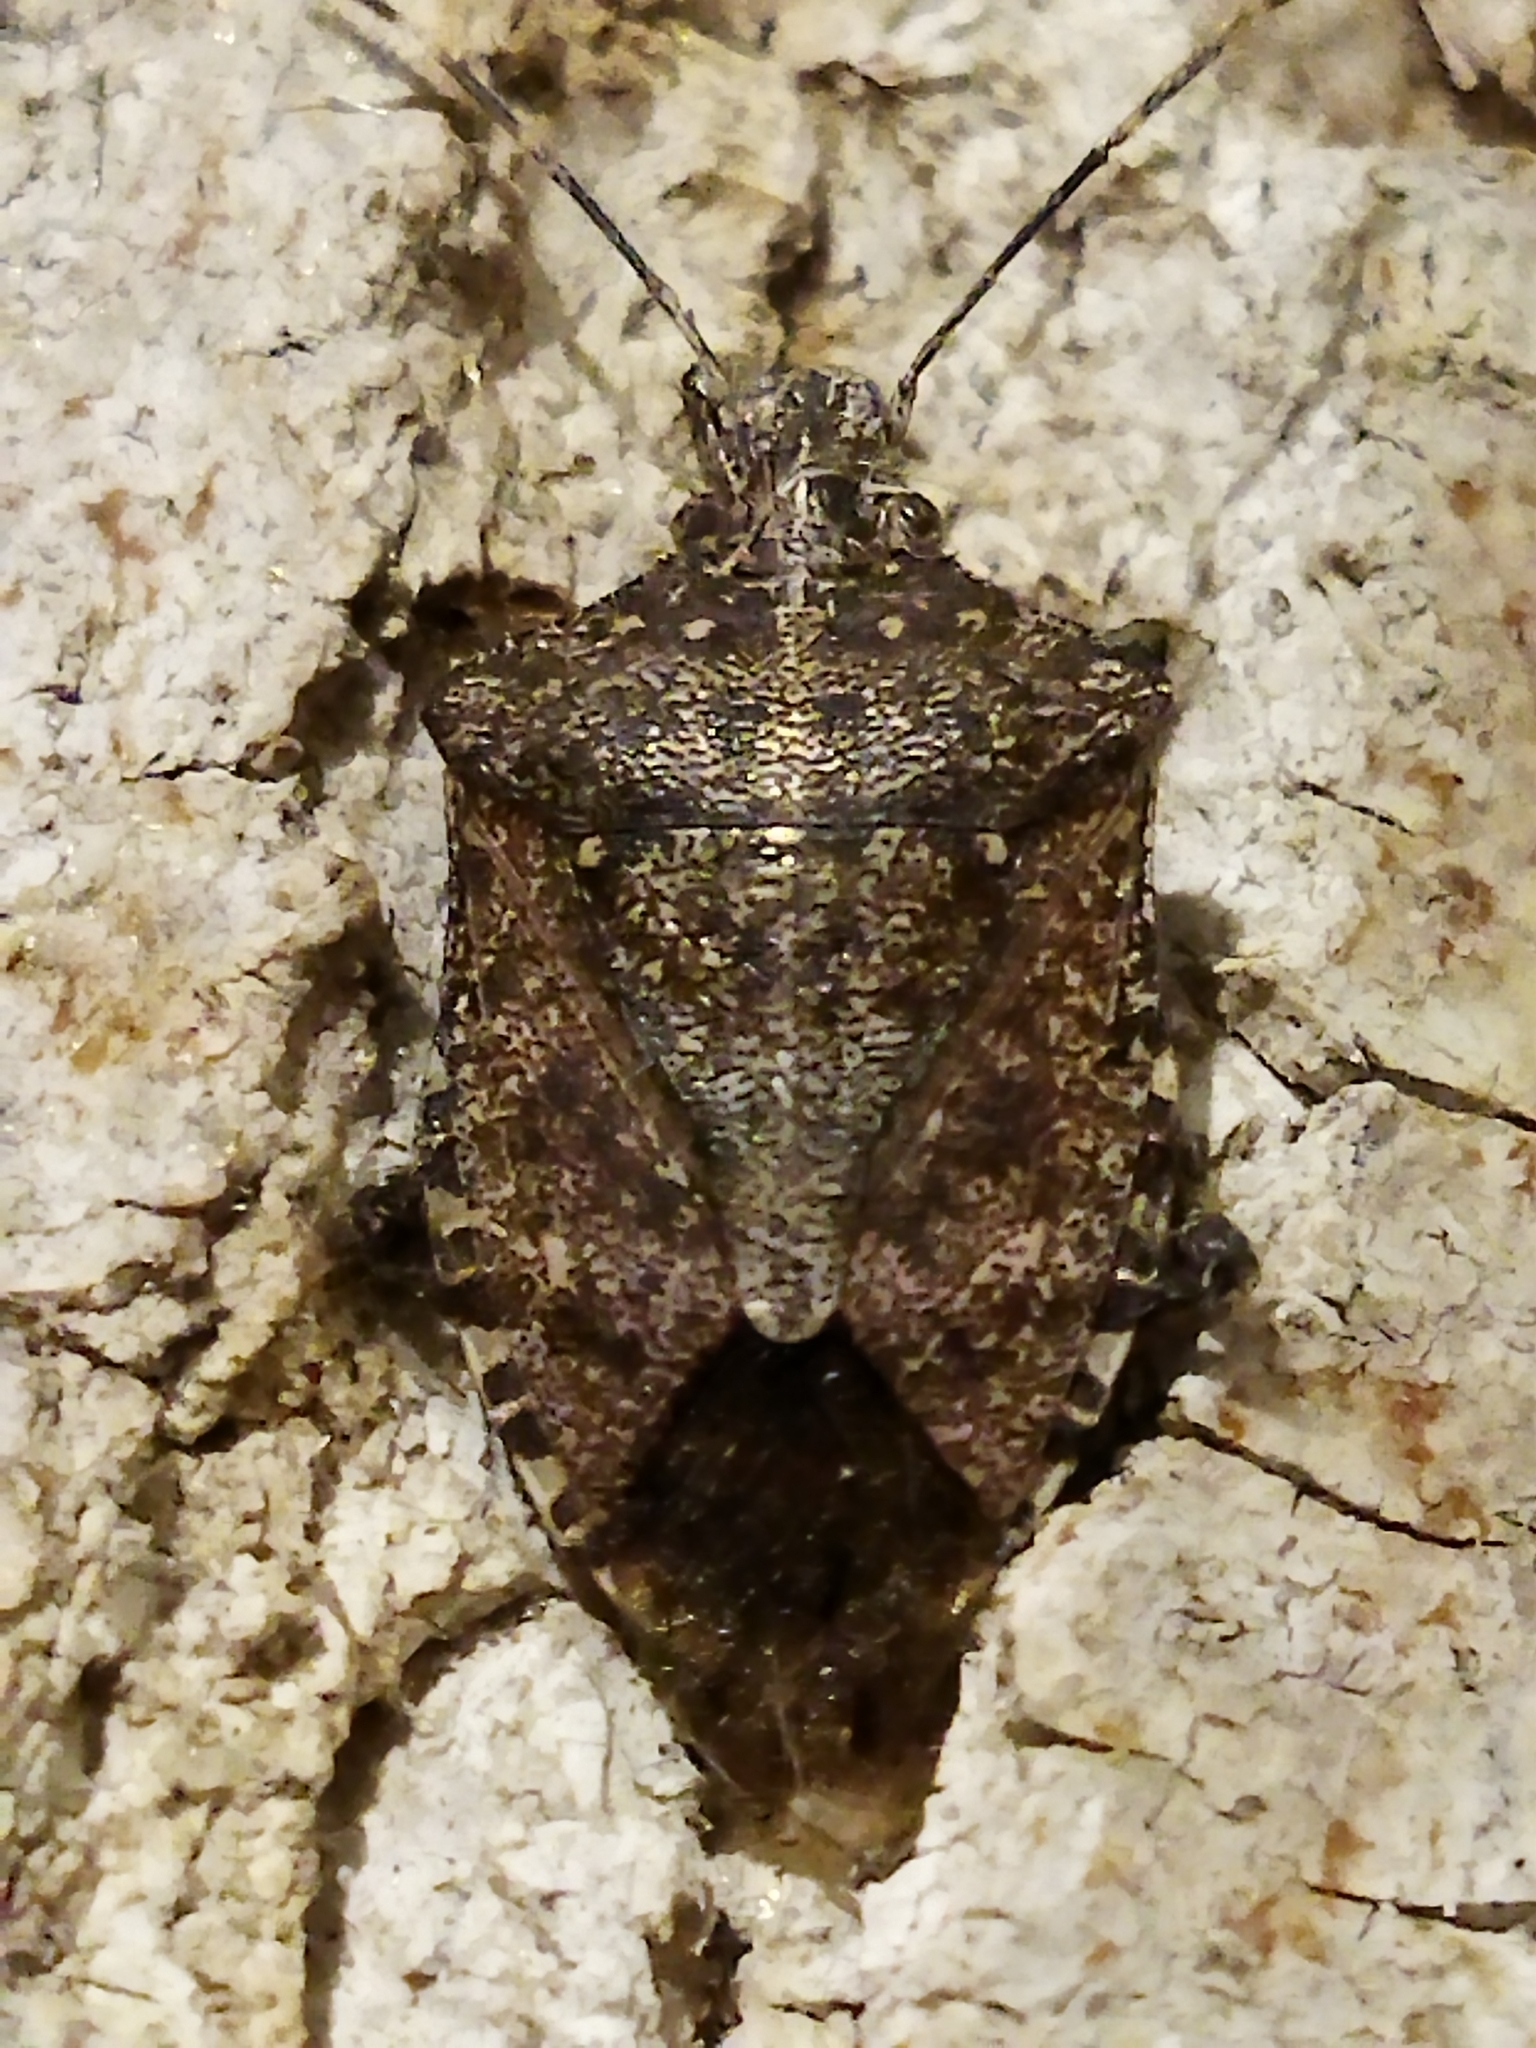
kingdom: Animalia
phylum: Arthropoda
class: Insecta
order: Hemiptera
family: Pentatomidae
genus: Halyomorpha
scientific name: Halyomorpha halys
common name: Brown marmorated stink bug
